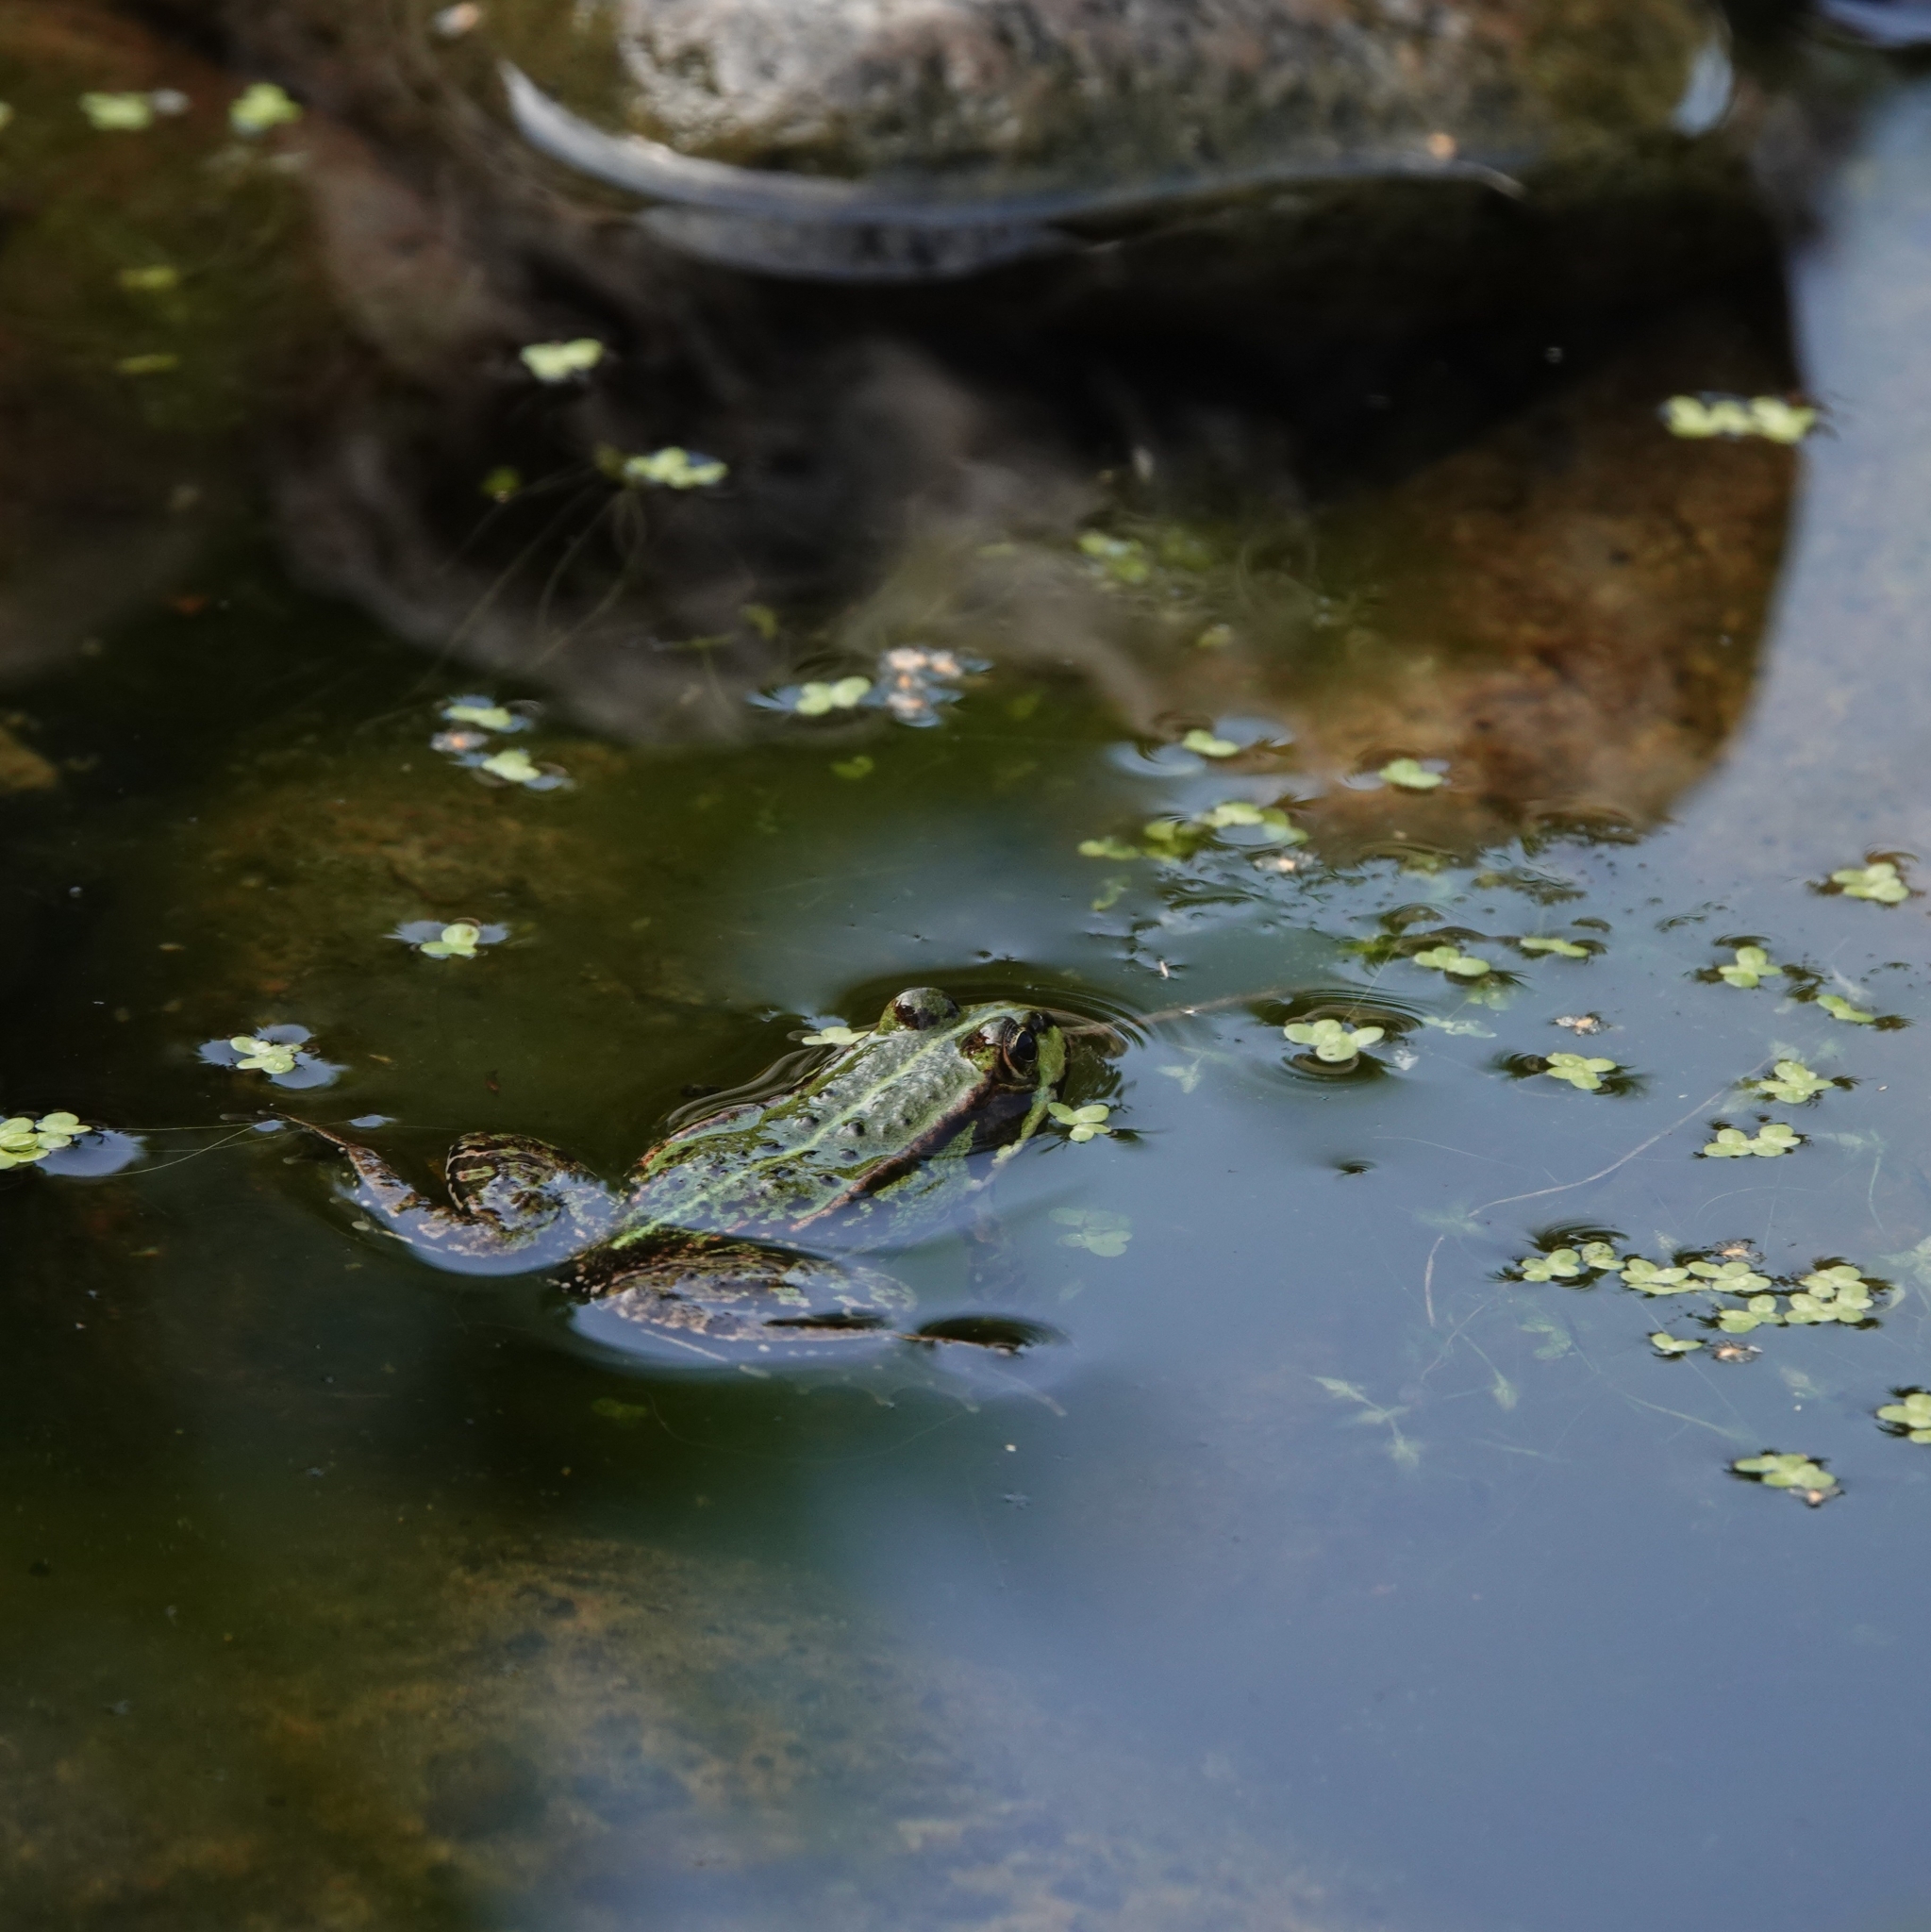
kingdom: Animalia
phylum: Chordata
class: Amphibia
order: Anura
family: Ranidae
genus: Pelophylax
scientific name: Pelophylax lessonae
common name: Pool frog
